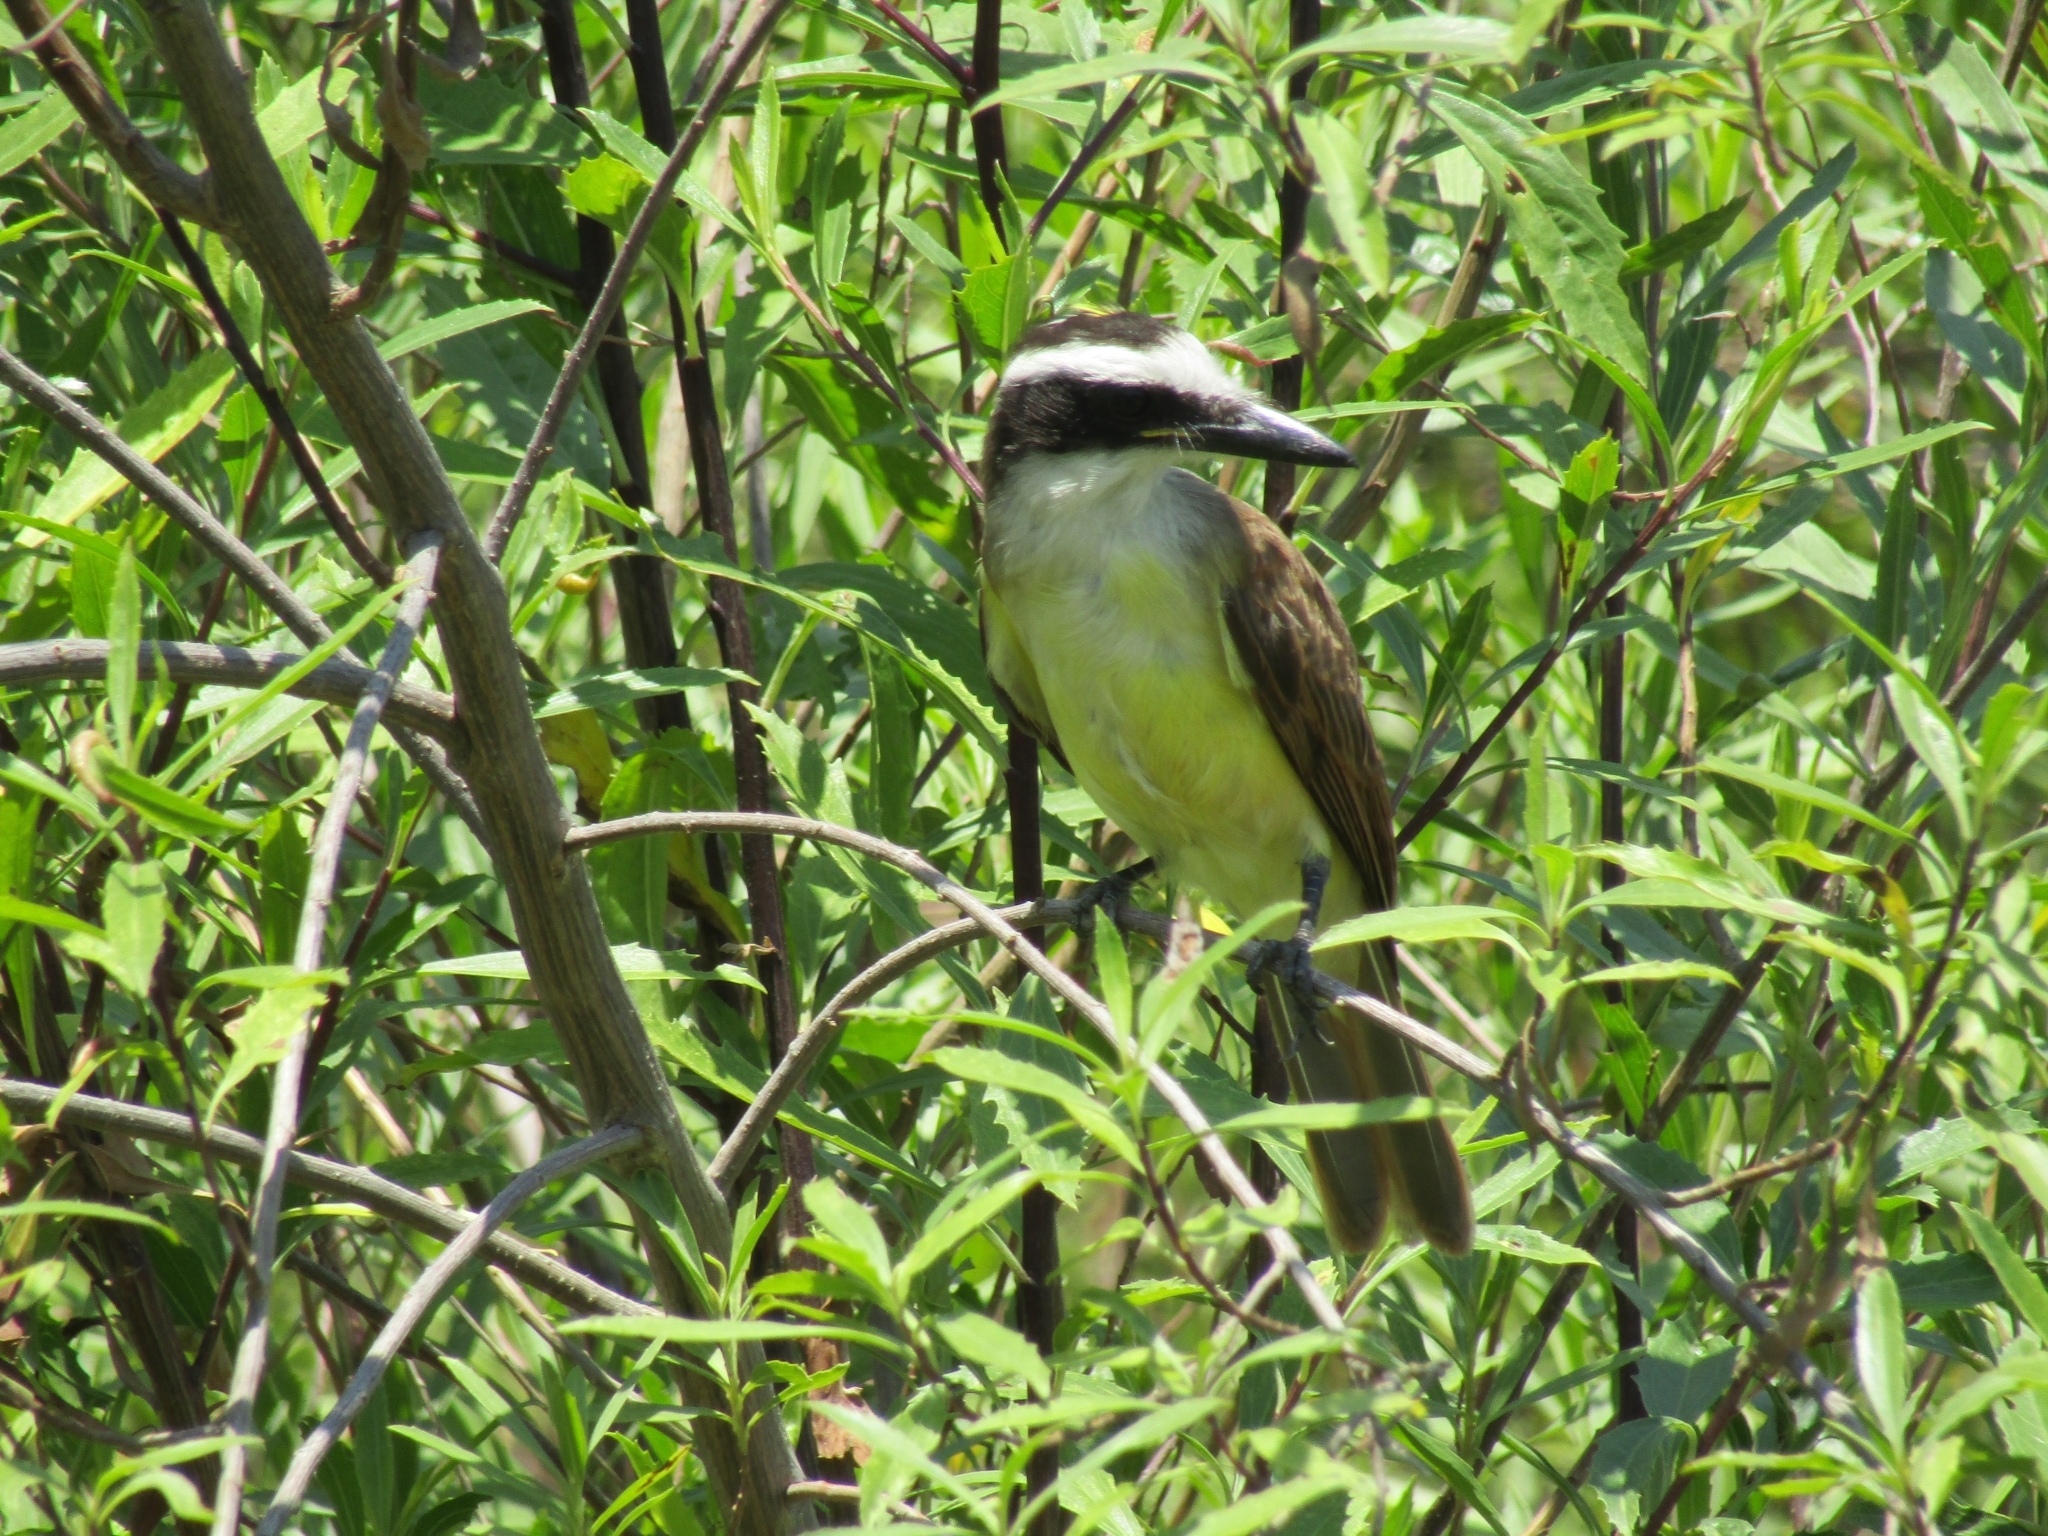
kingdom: Animalia
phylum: Chordata
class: Aves
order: Passeriformes
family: Tyrannidae
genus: Pitangus
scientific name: Pitangus sulphuratus
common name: Great kiskadee
